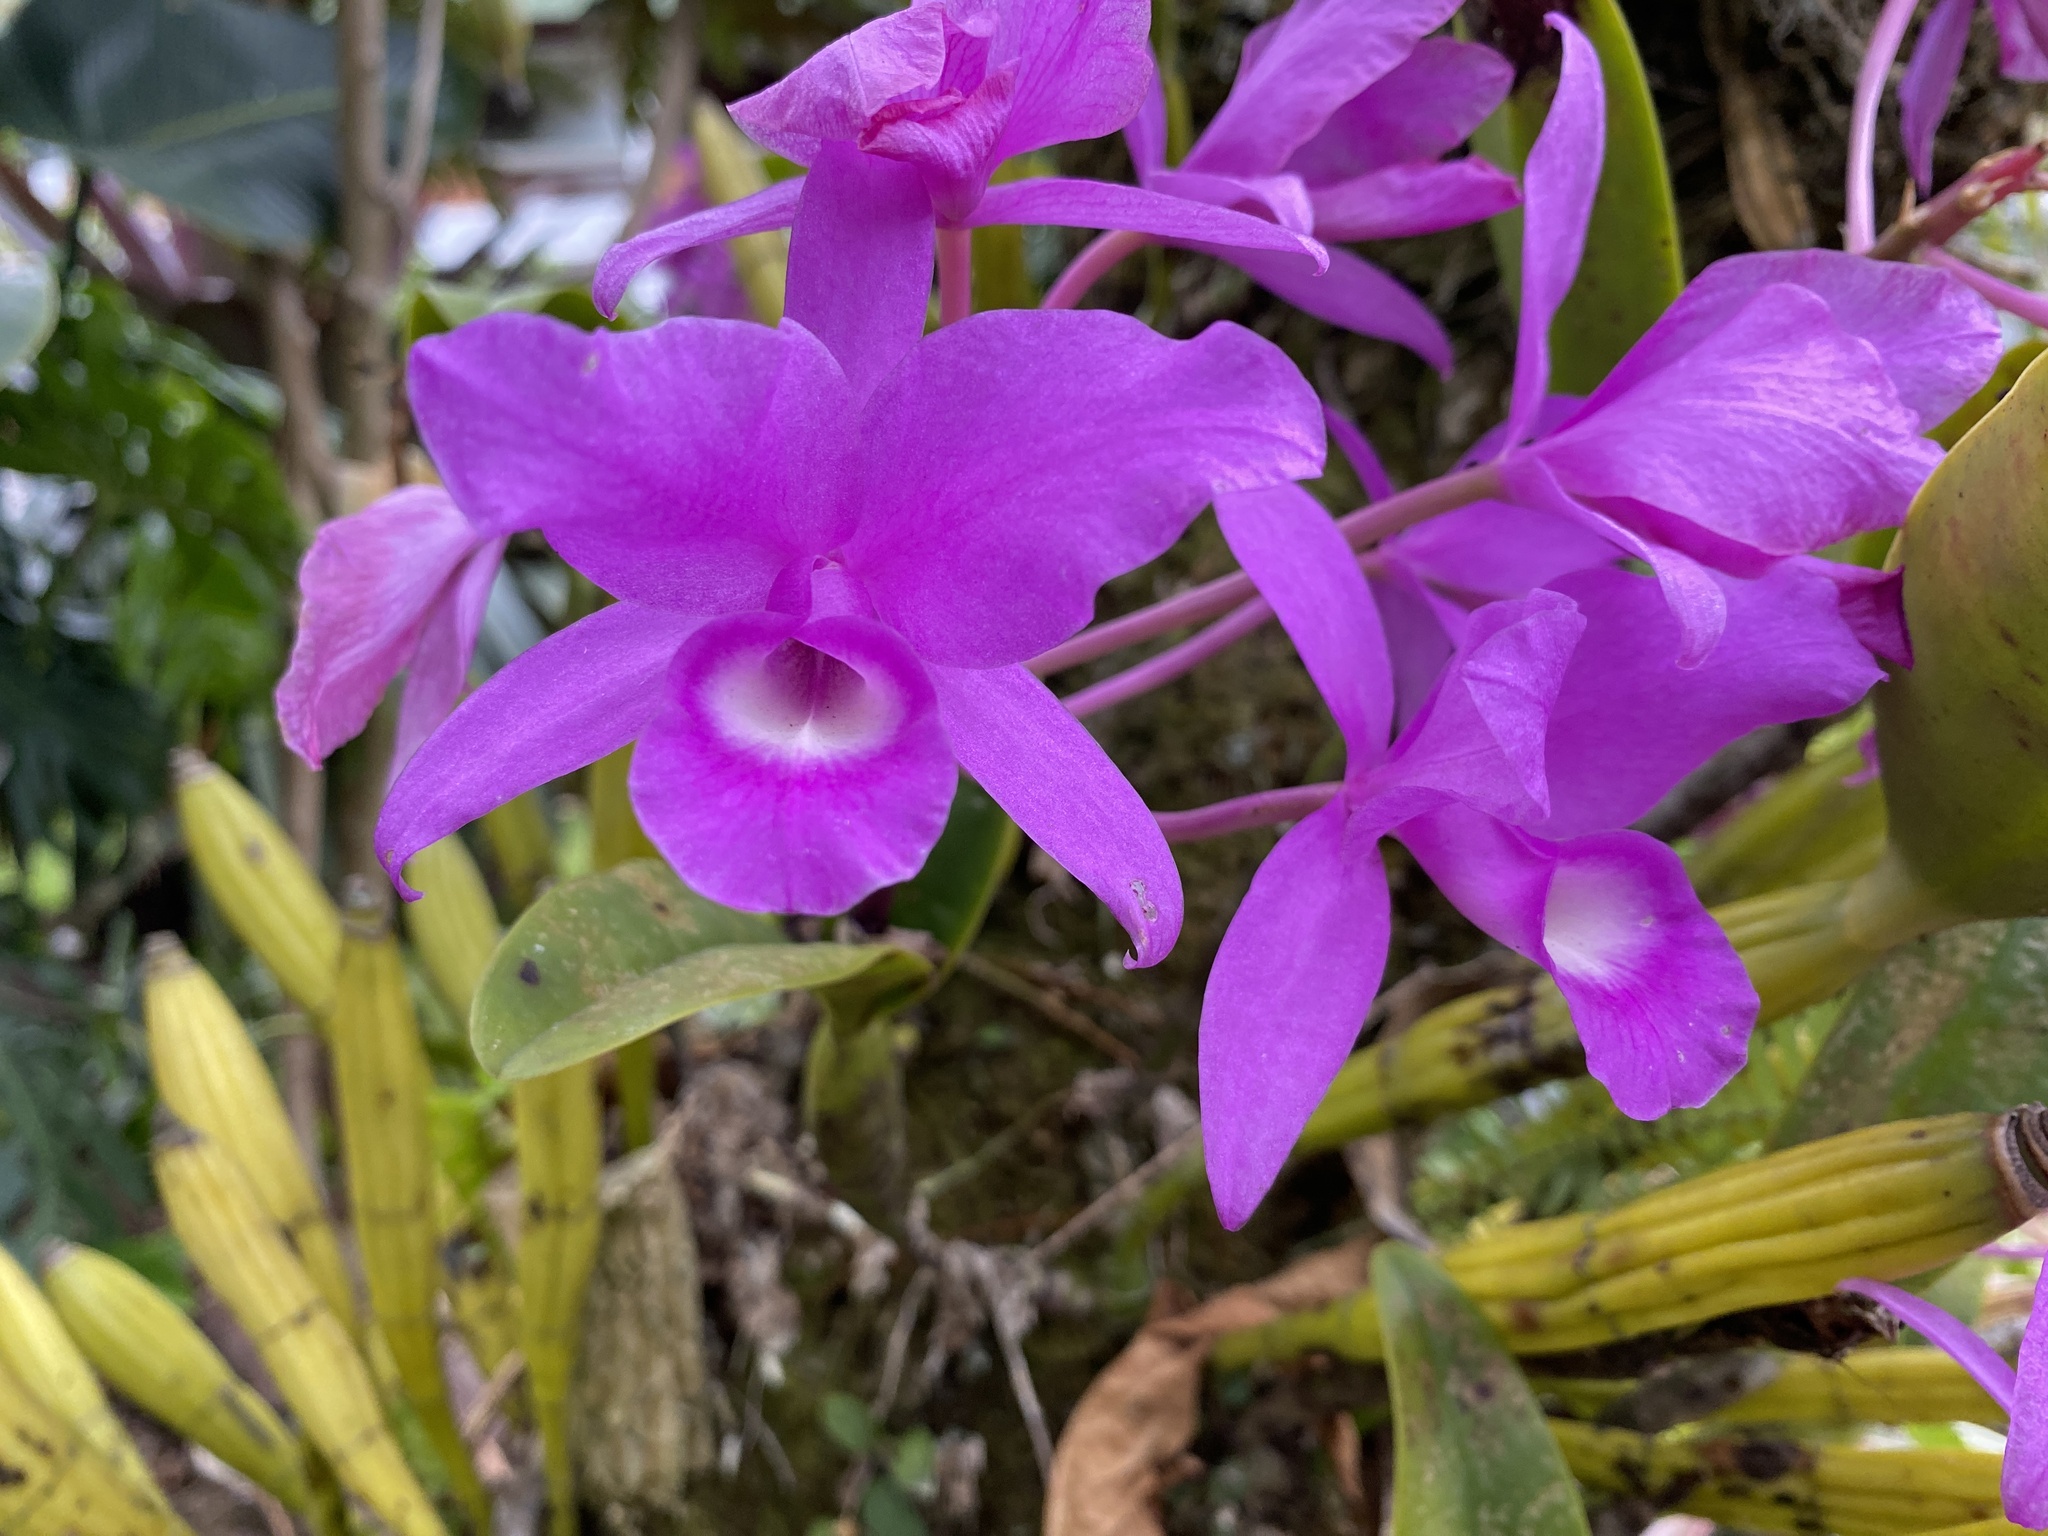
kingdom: Plantae
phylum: Tracheophyta
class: Liliopsida
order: Asparagales
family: Orchidaceae
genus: Guarianthe
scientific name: Guarianthe skinneri
